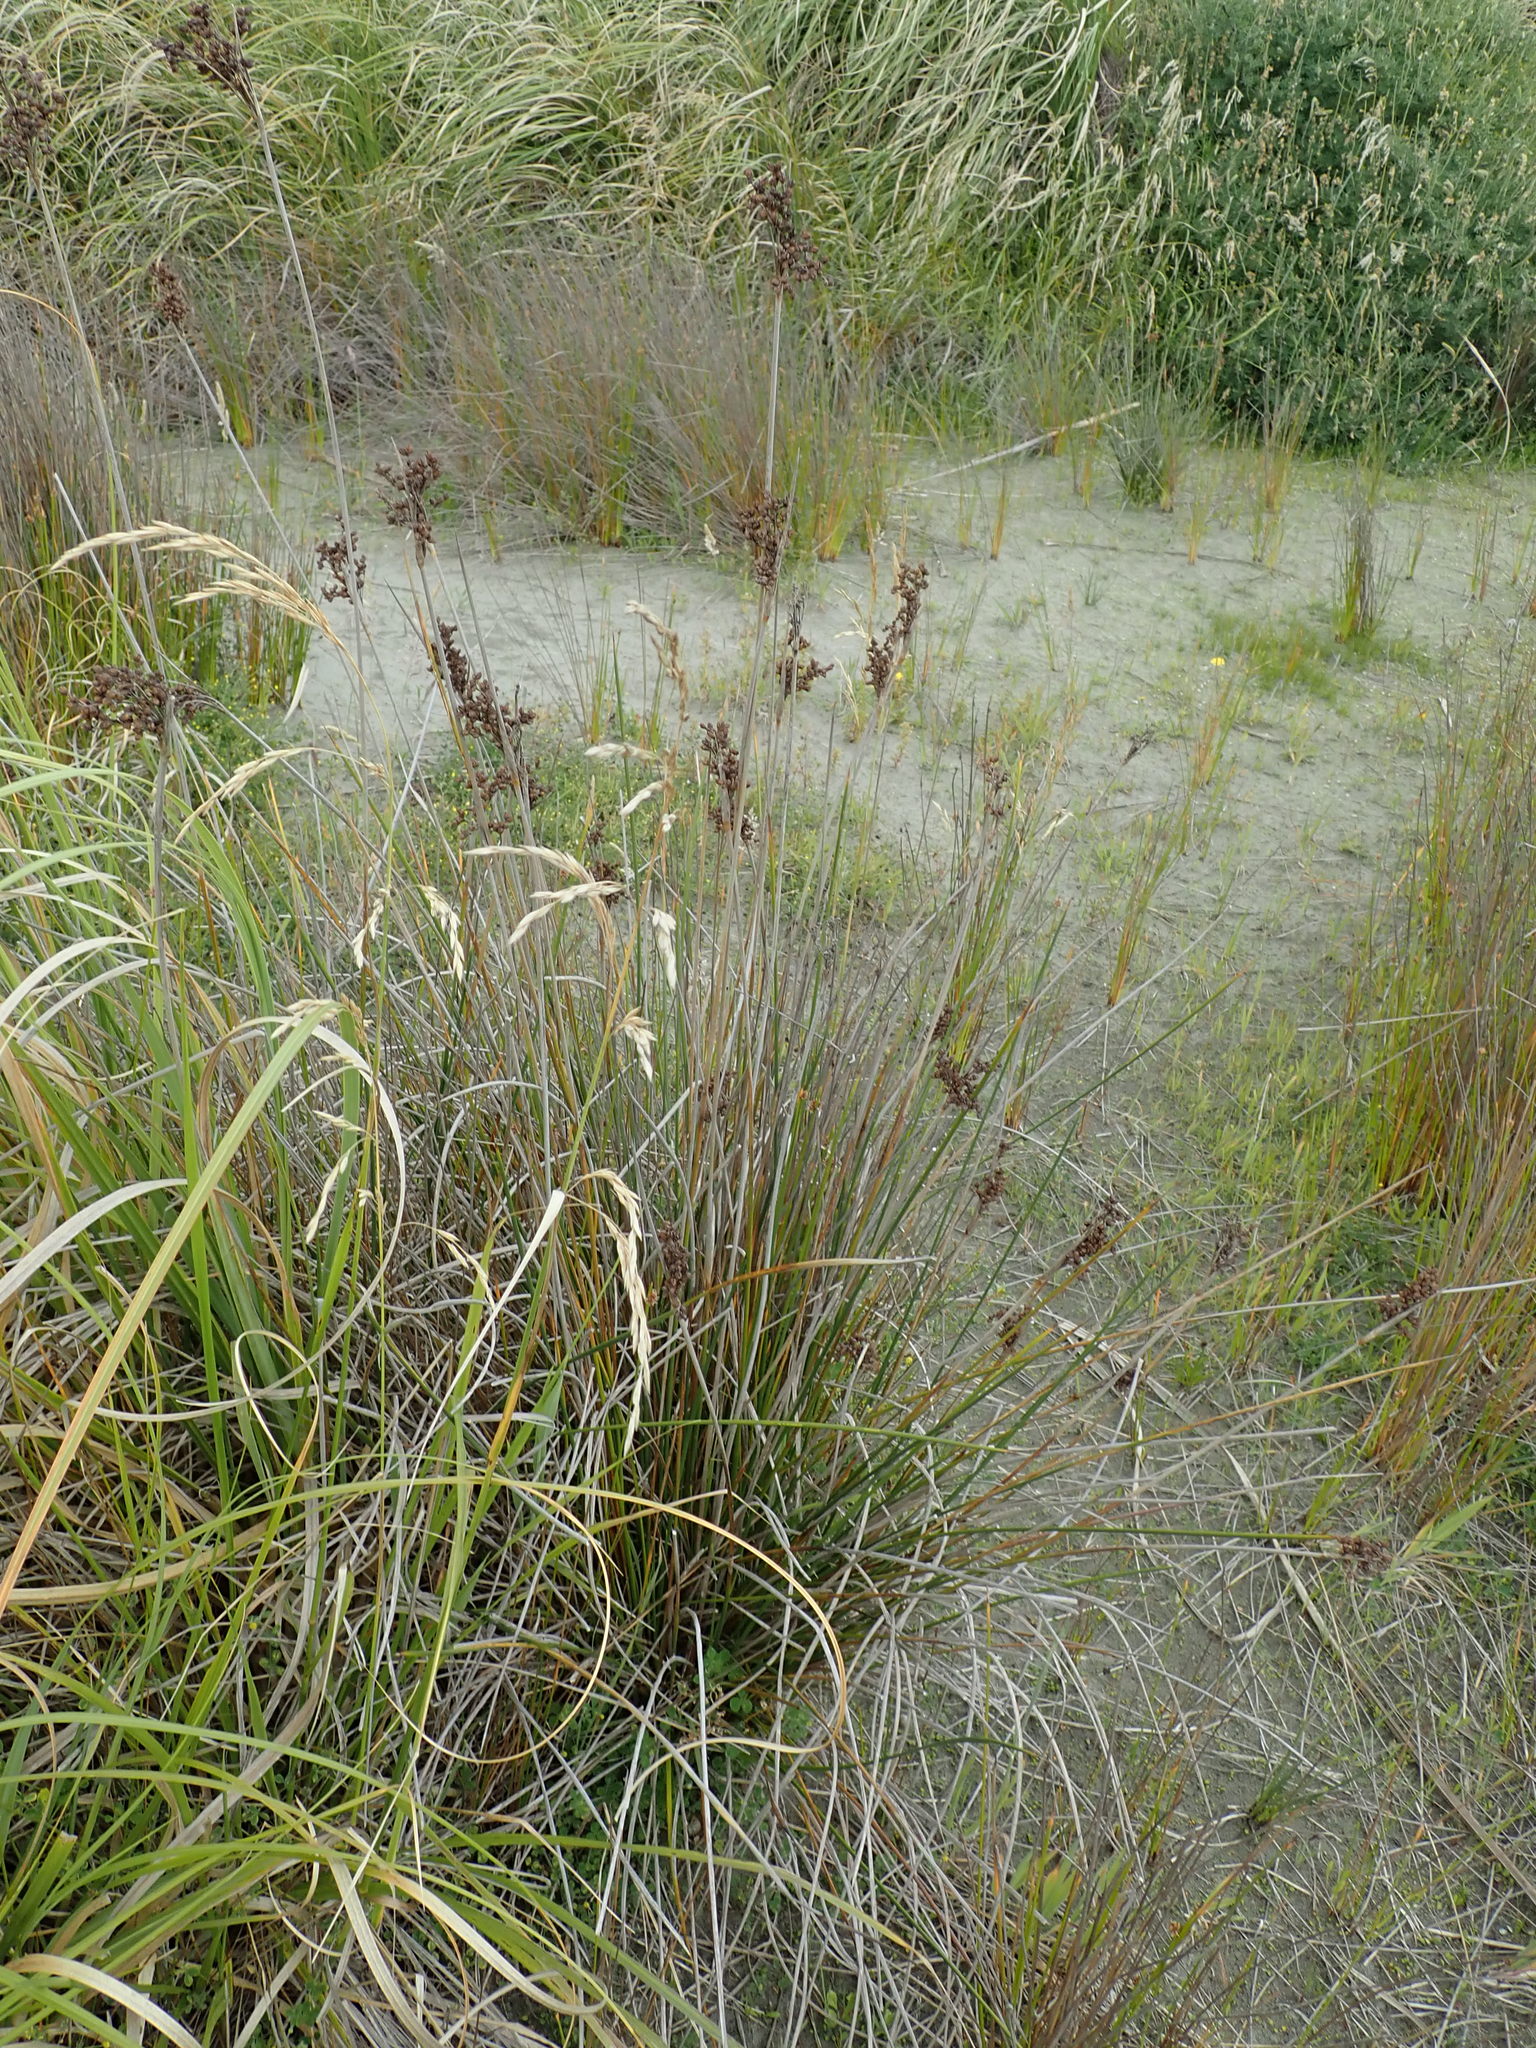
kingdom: Plantae
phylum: Tracheophyta
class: Liliopsida
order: Poales
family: Juncaceae
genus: Juncus
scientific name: Juncus acutus
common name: Sharp rush
